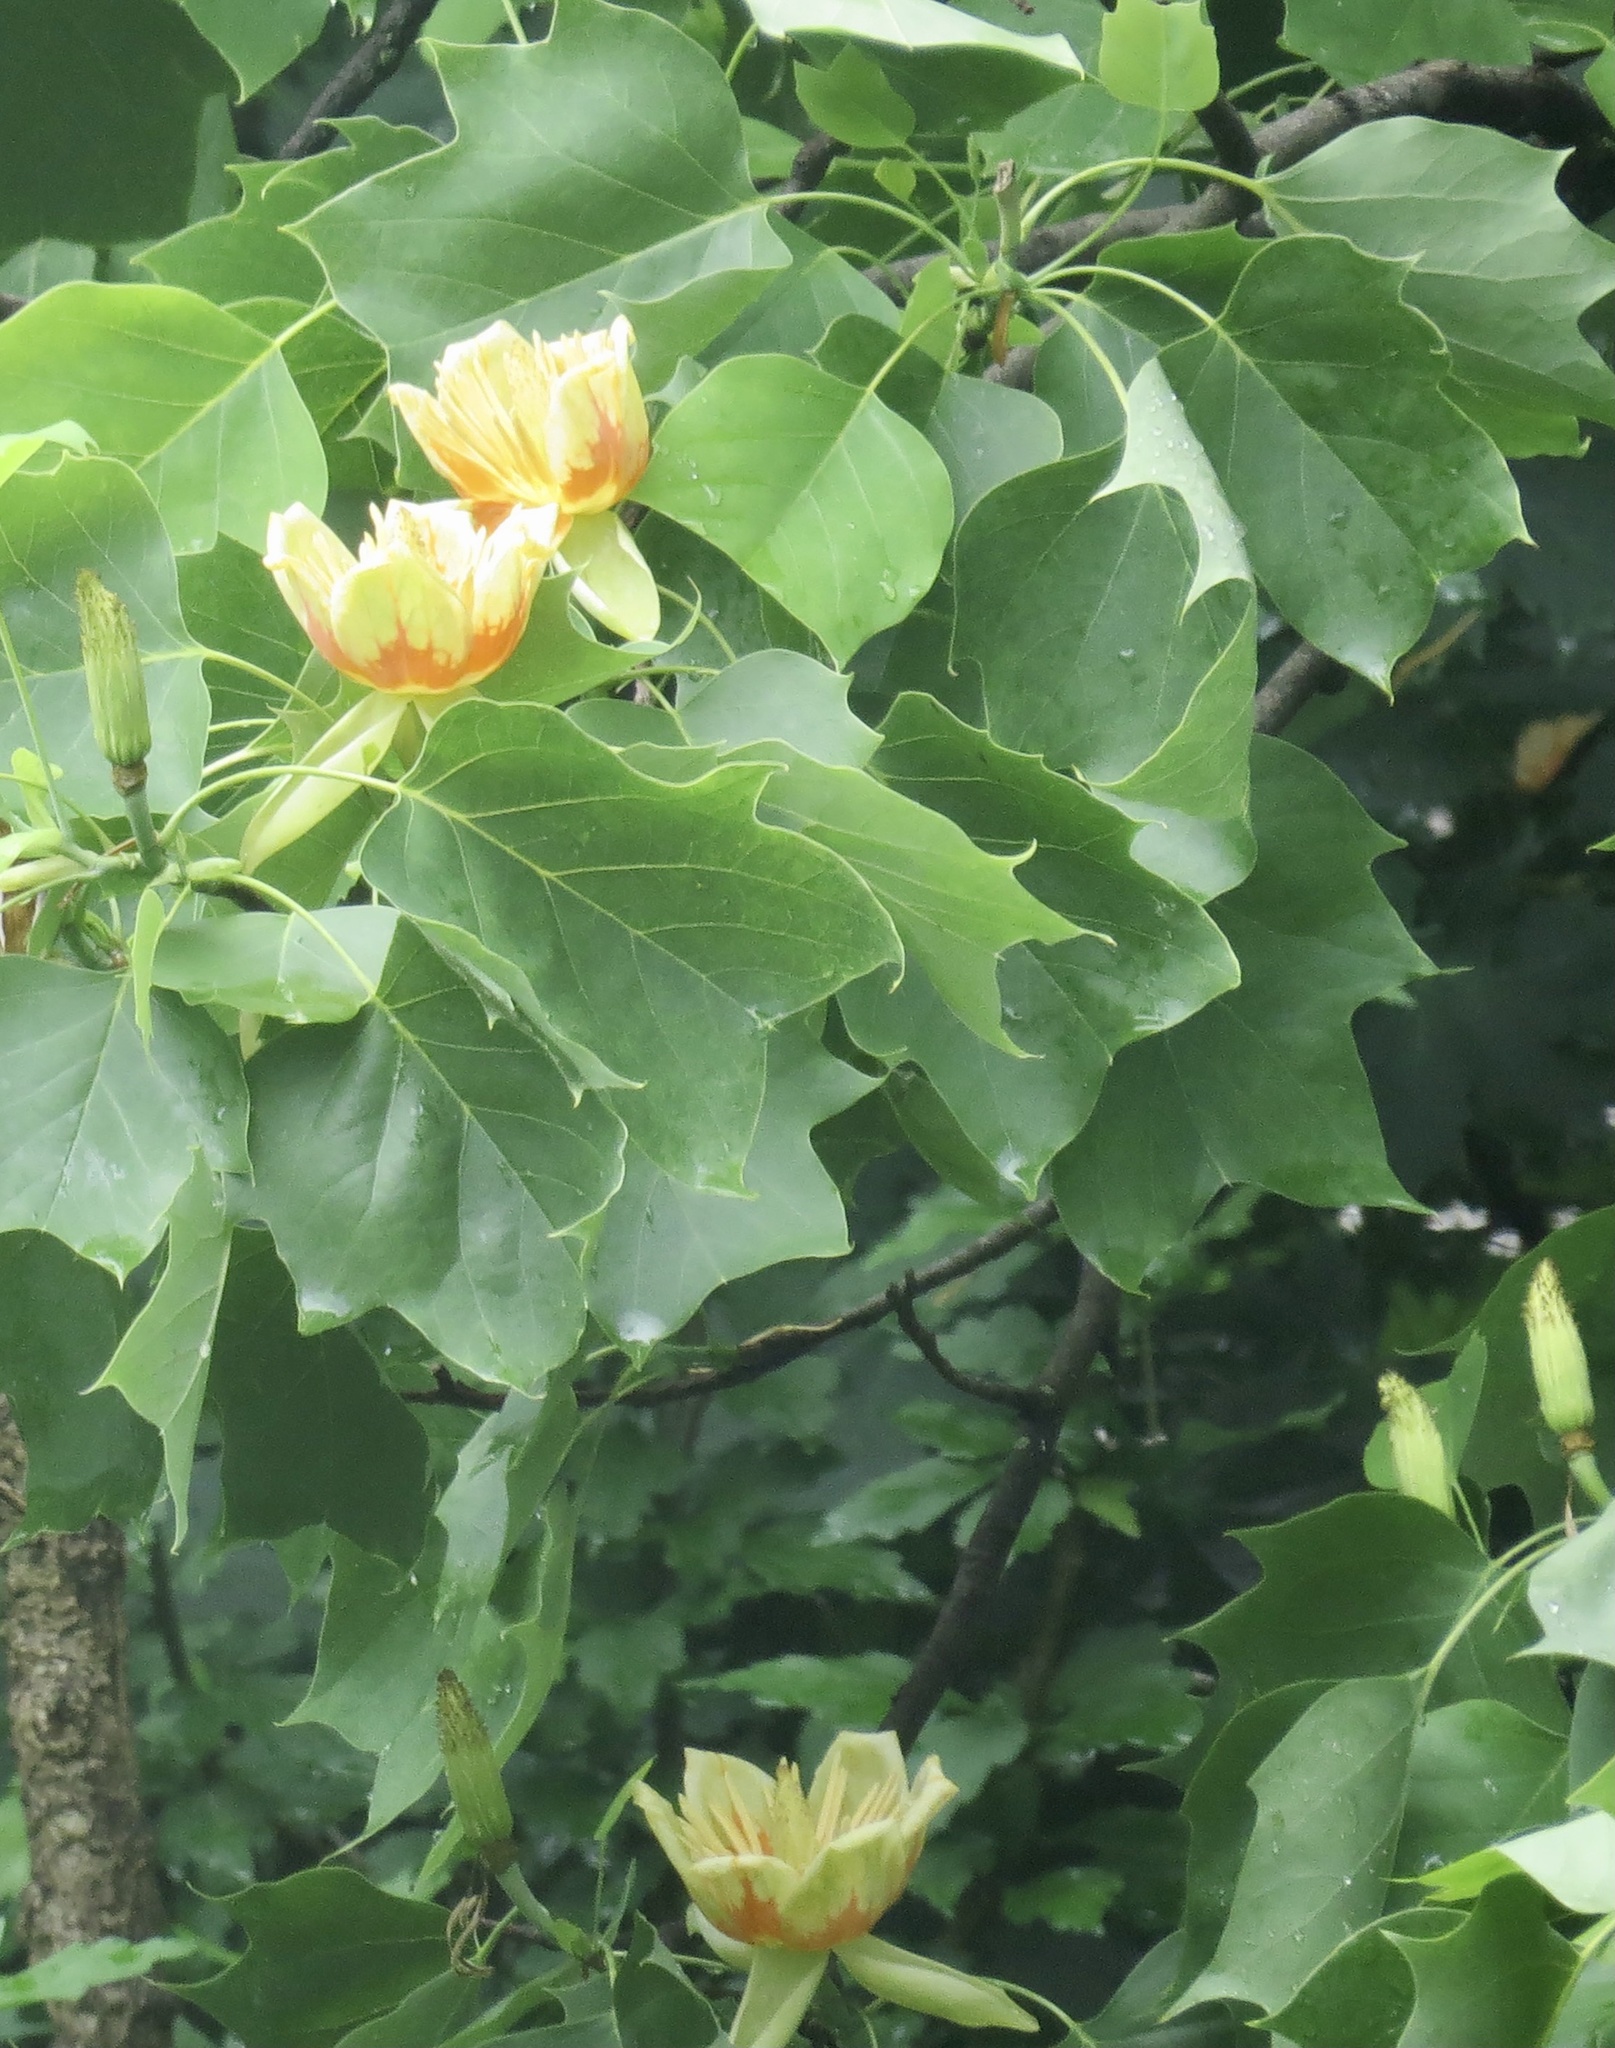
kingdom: Plantae
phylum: Tracheophyta
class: Magnoliopsida
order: Magnoliales
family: Magnoliaceae
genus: Liriodendron
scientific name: Liriodendron tulipifera
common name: Tulip tree
